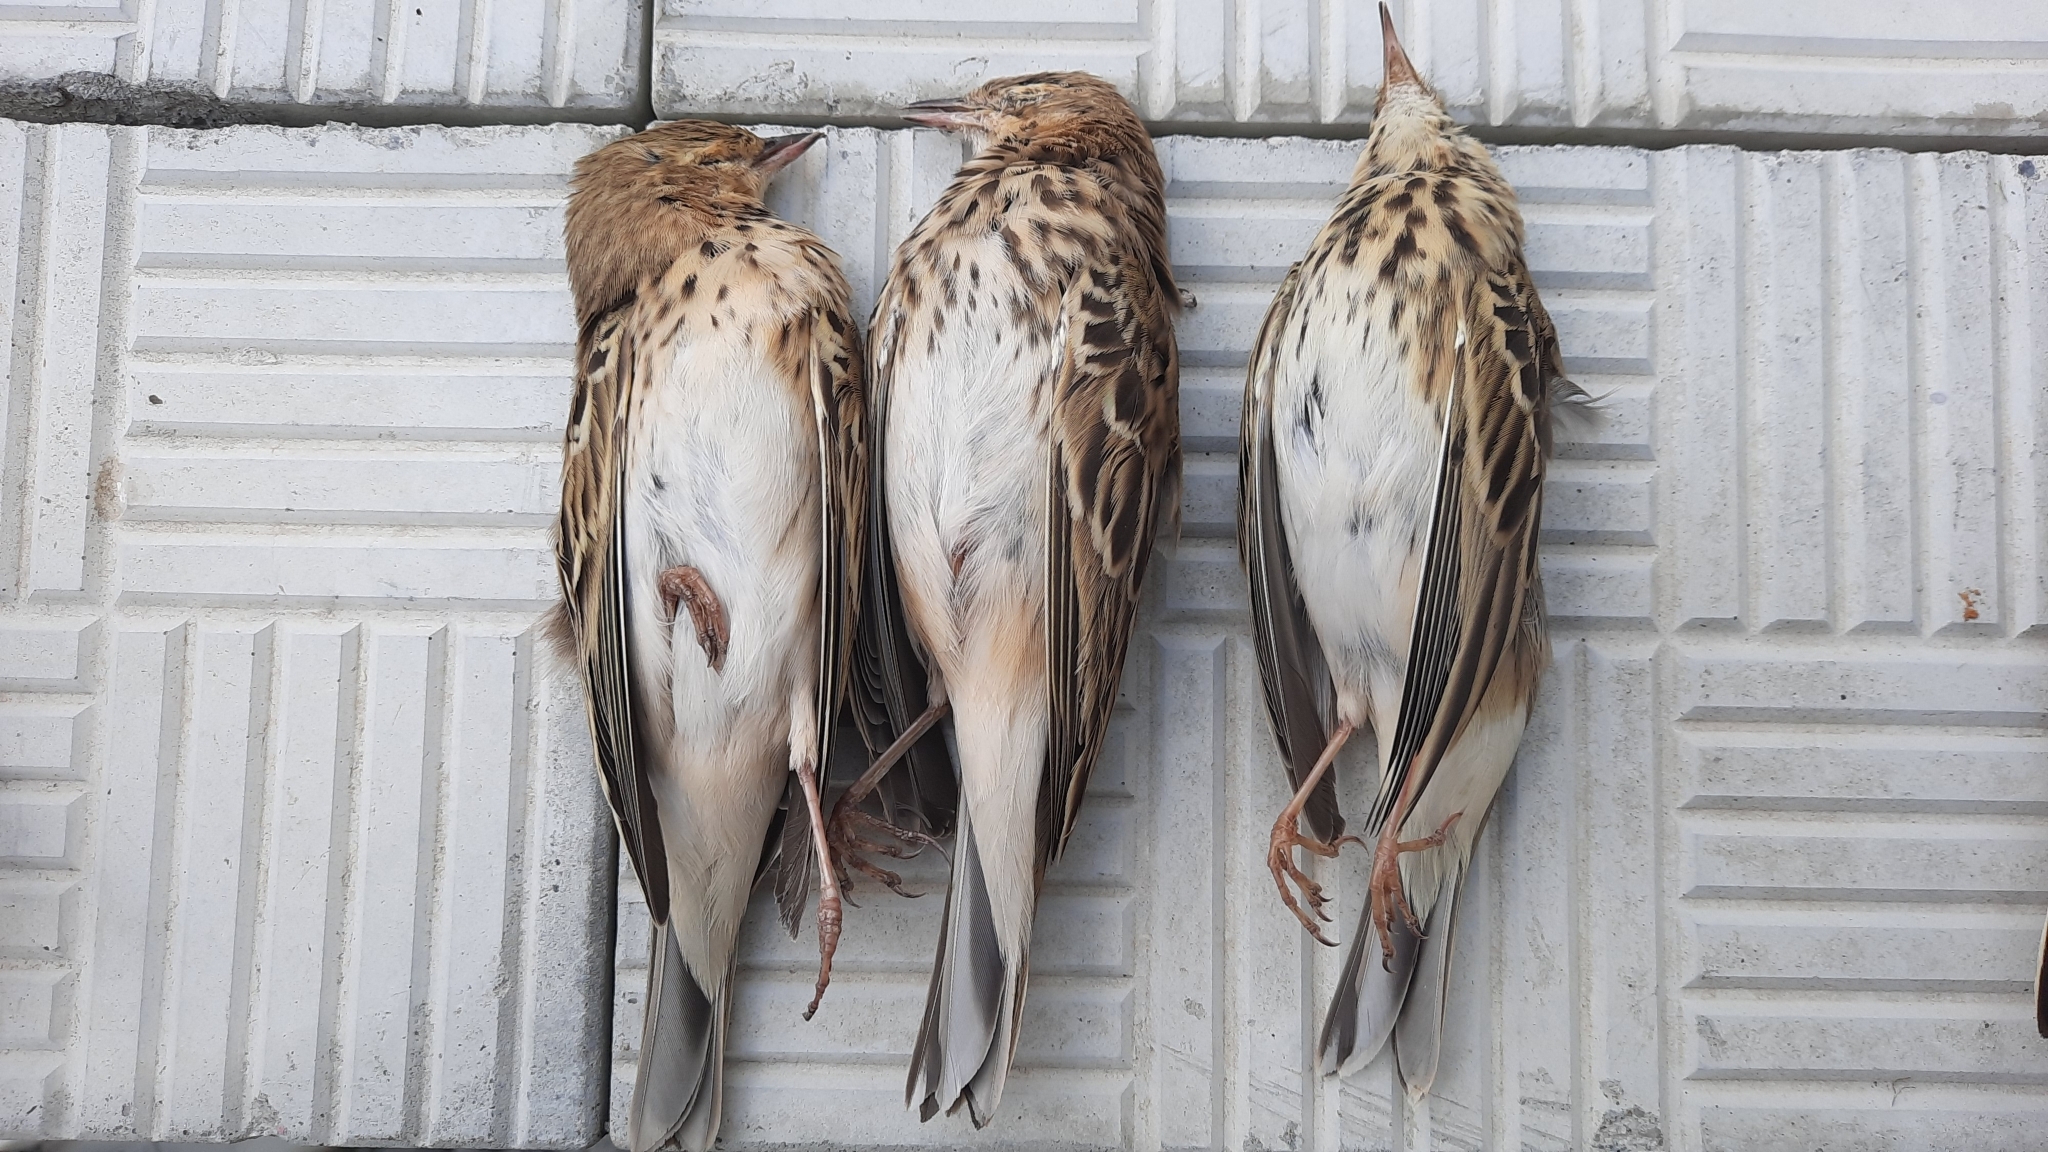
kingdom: Animalia
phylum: Chordata
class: Aves
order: Passeriformes
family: Motacillidae
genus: Anthus
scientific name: Anthus trivialis
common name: Tree pipit
